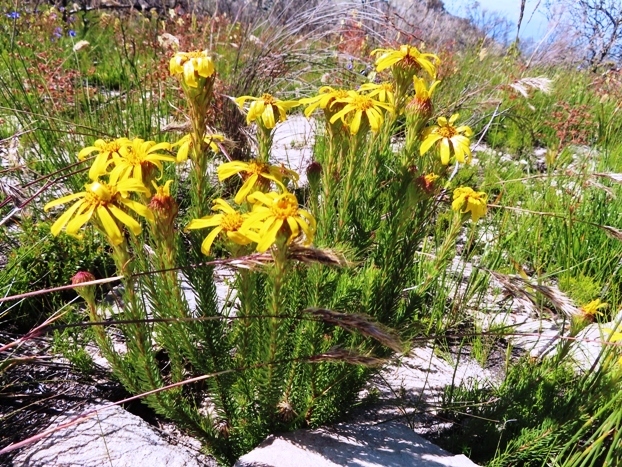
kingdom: Plantae
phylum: Tracheophyta
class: Magnoliopsida
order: Asterales
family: Asteraceae
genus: Senecio
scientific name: Senecio pinifolius
